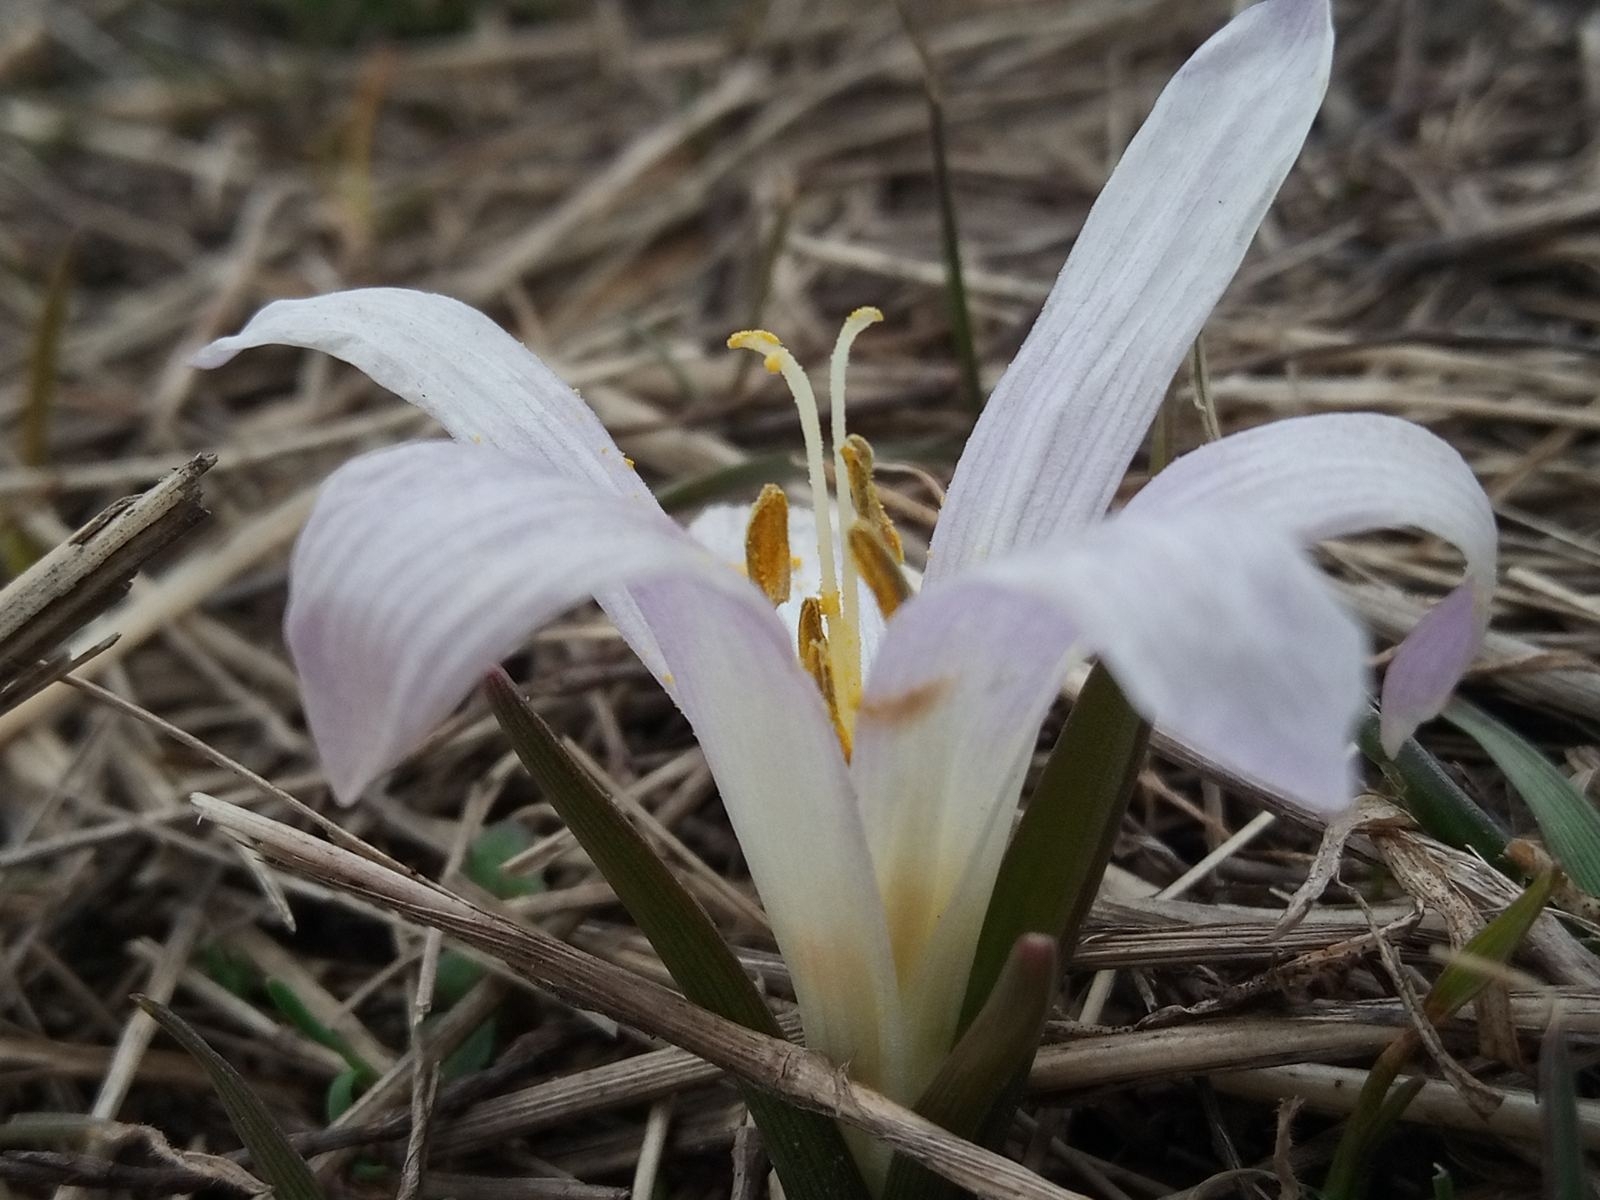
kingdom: Plantae
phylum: Tracheophyta
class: Liliopsida
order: Liliales
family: Colchicaceae
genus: Colchicum
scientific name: Colchicum bulbocodium
